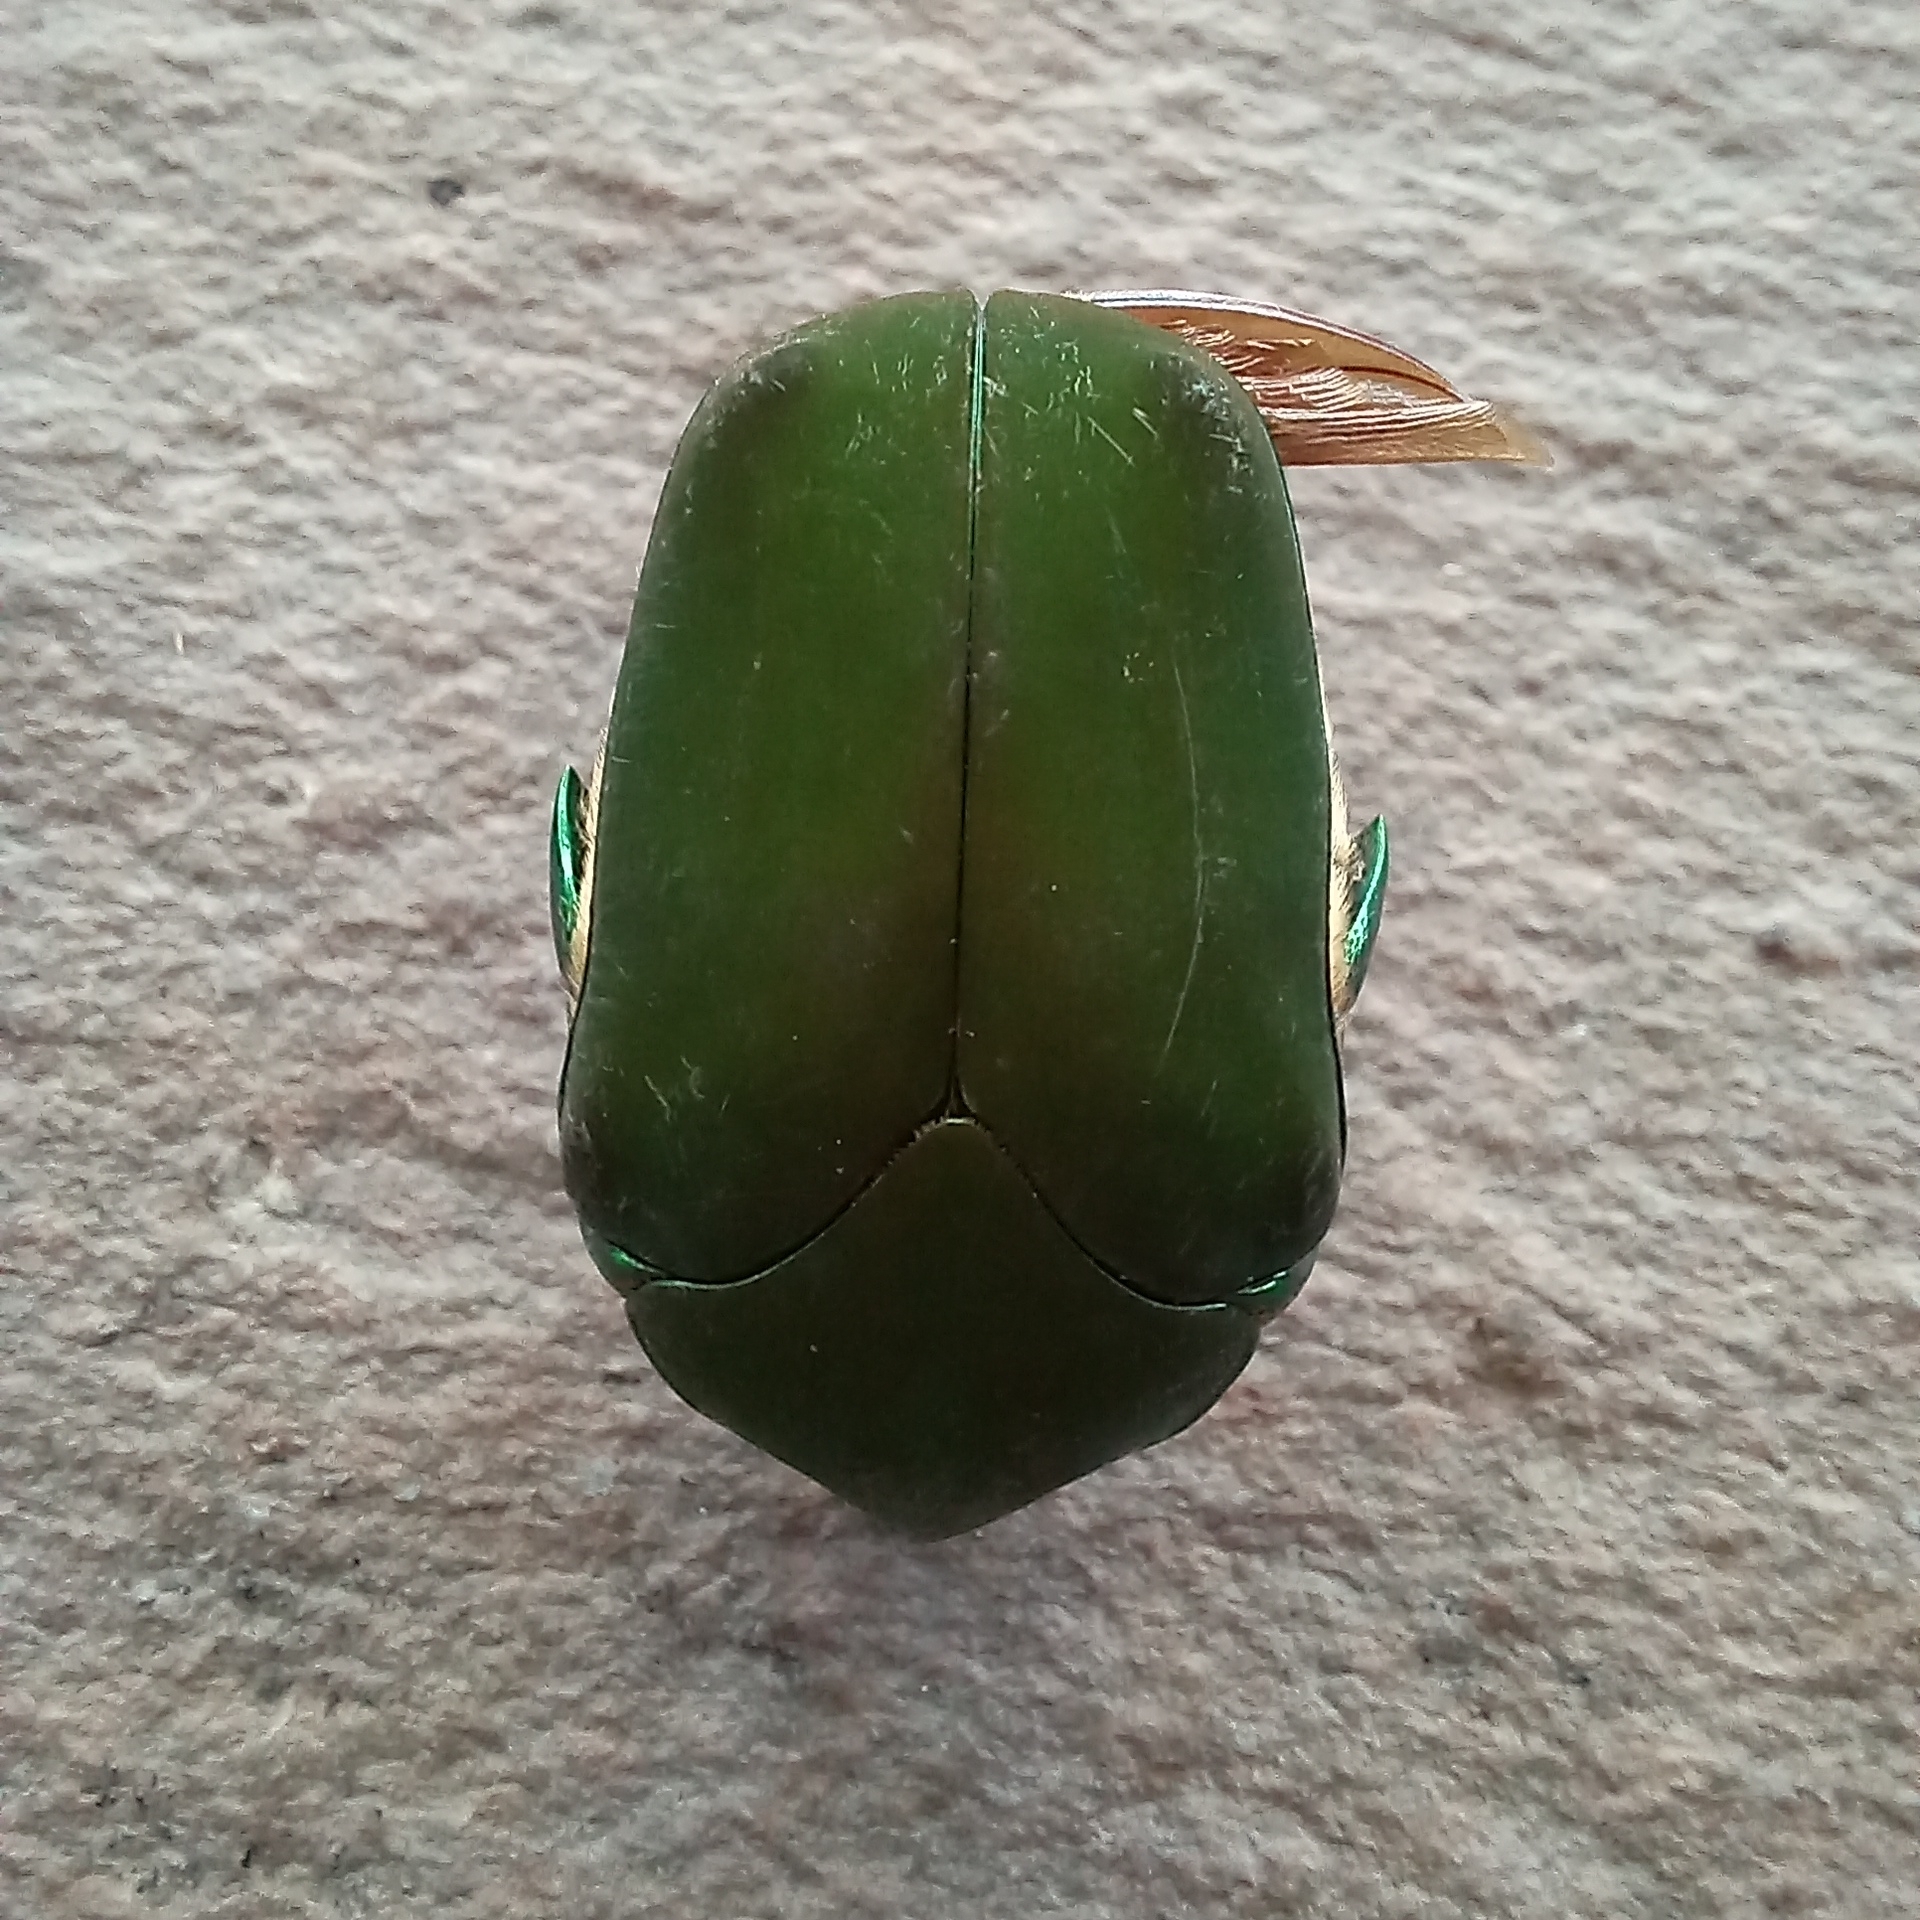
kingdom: Animalia
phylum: Arthropoda
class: Insecta
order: Coleoptera
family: Scarabaeidae
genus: Cotinis
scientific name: Cotinis mutabilis
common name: Figeater beetle
